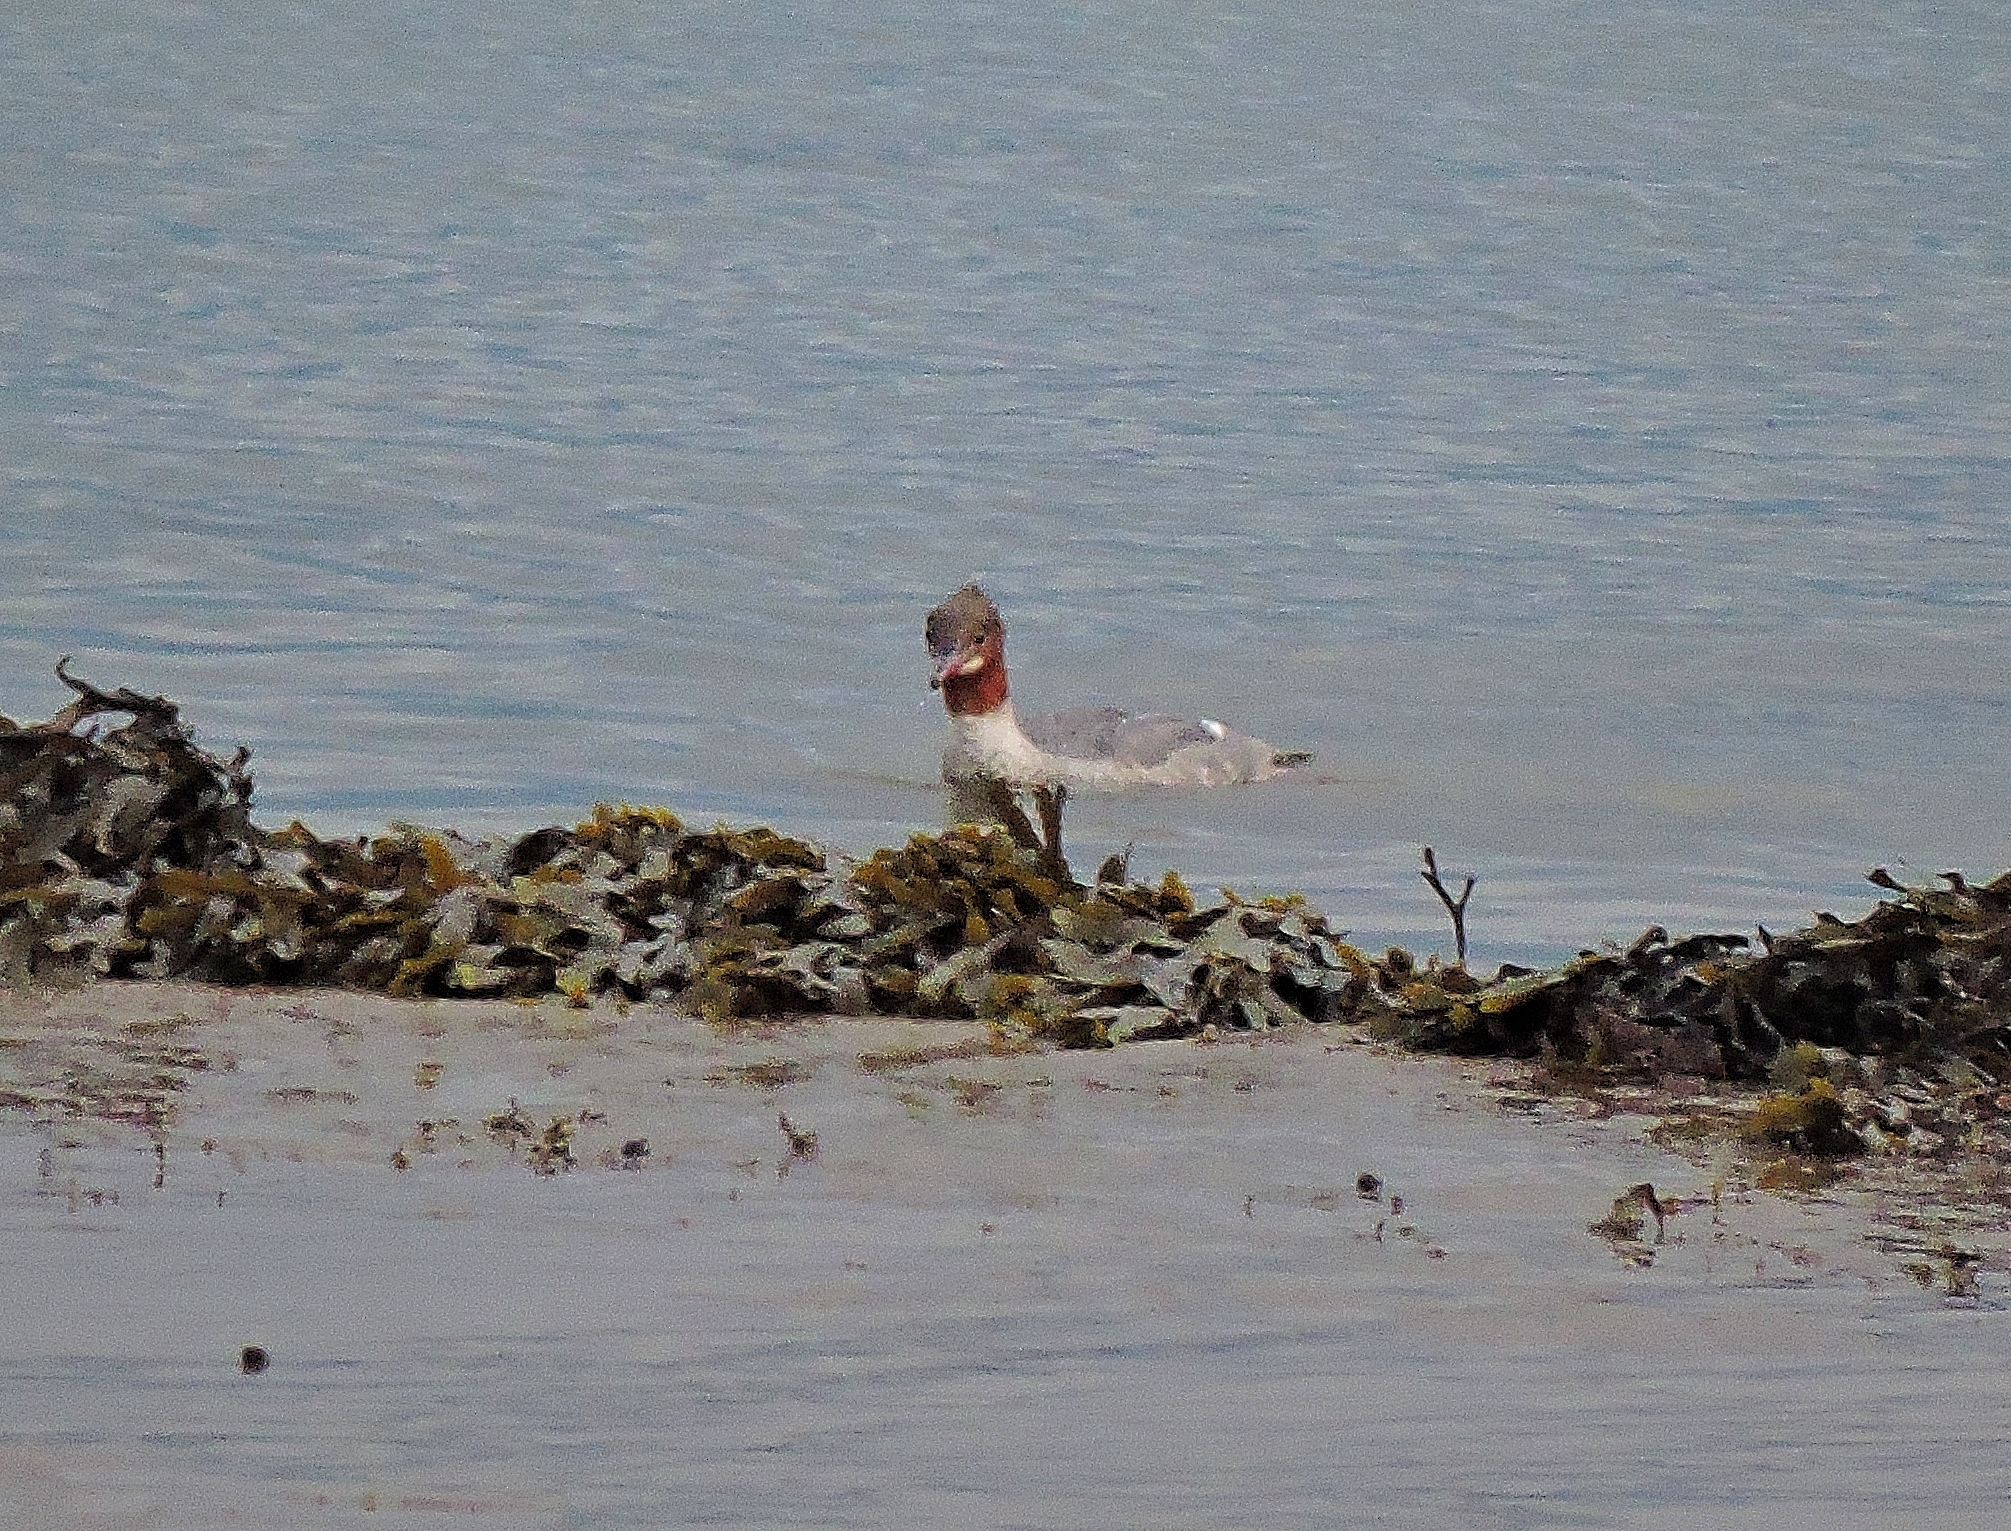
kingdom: Animalia
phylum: Chordata
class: Aves
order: Anseriformes
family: Anatidae
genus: Mergus
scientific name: Mergus merganser
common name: Common merganser
